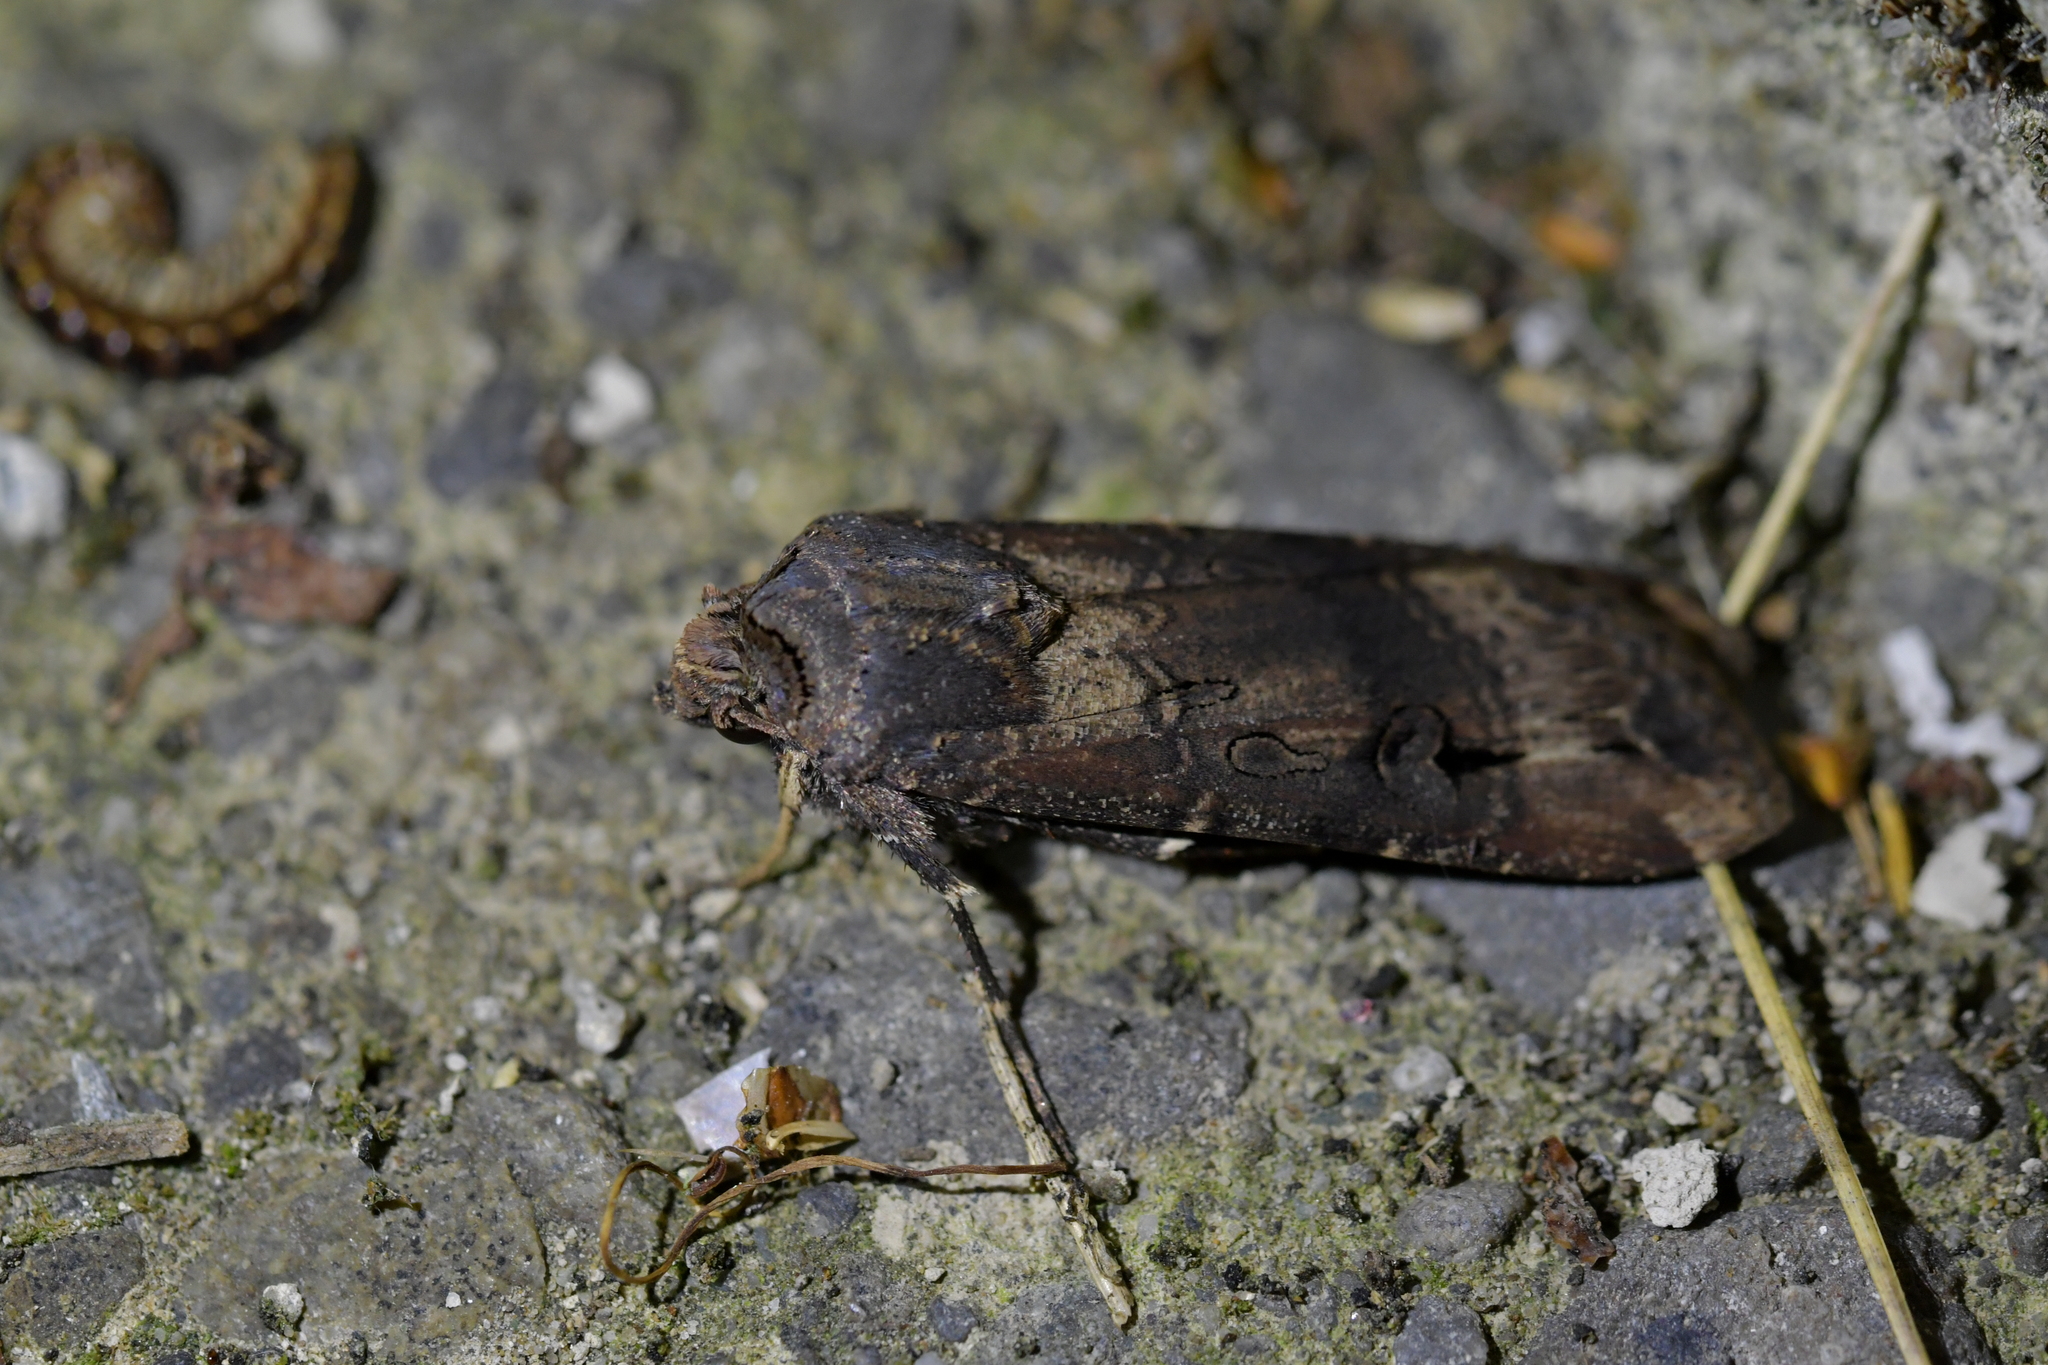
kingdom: Animalia
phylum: Arthropoda
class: Insecta
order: Lepidoptera
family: Noctuidae
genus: Agrotis
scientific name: Agrotis ipsilon
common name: Dark sword-grass
